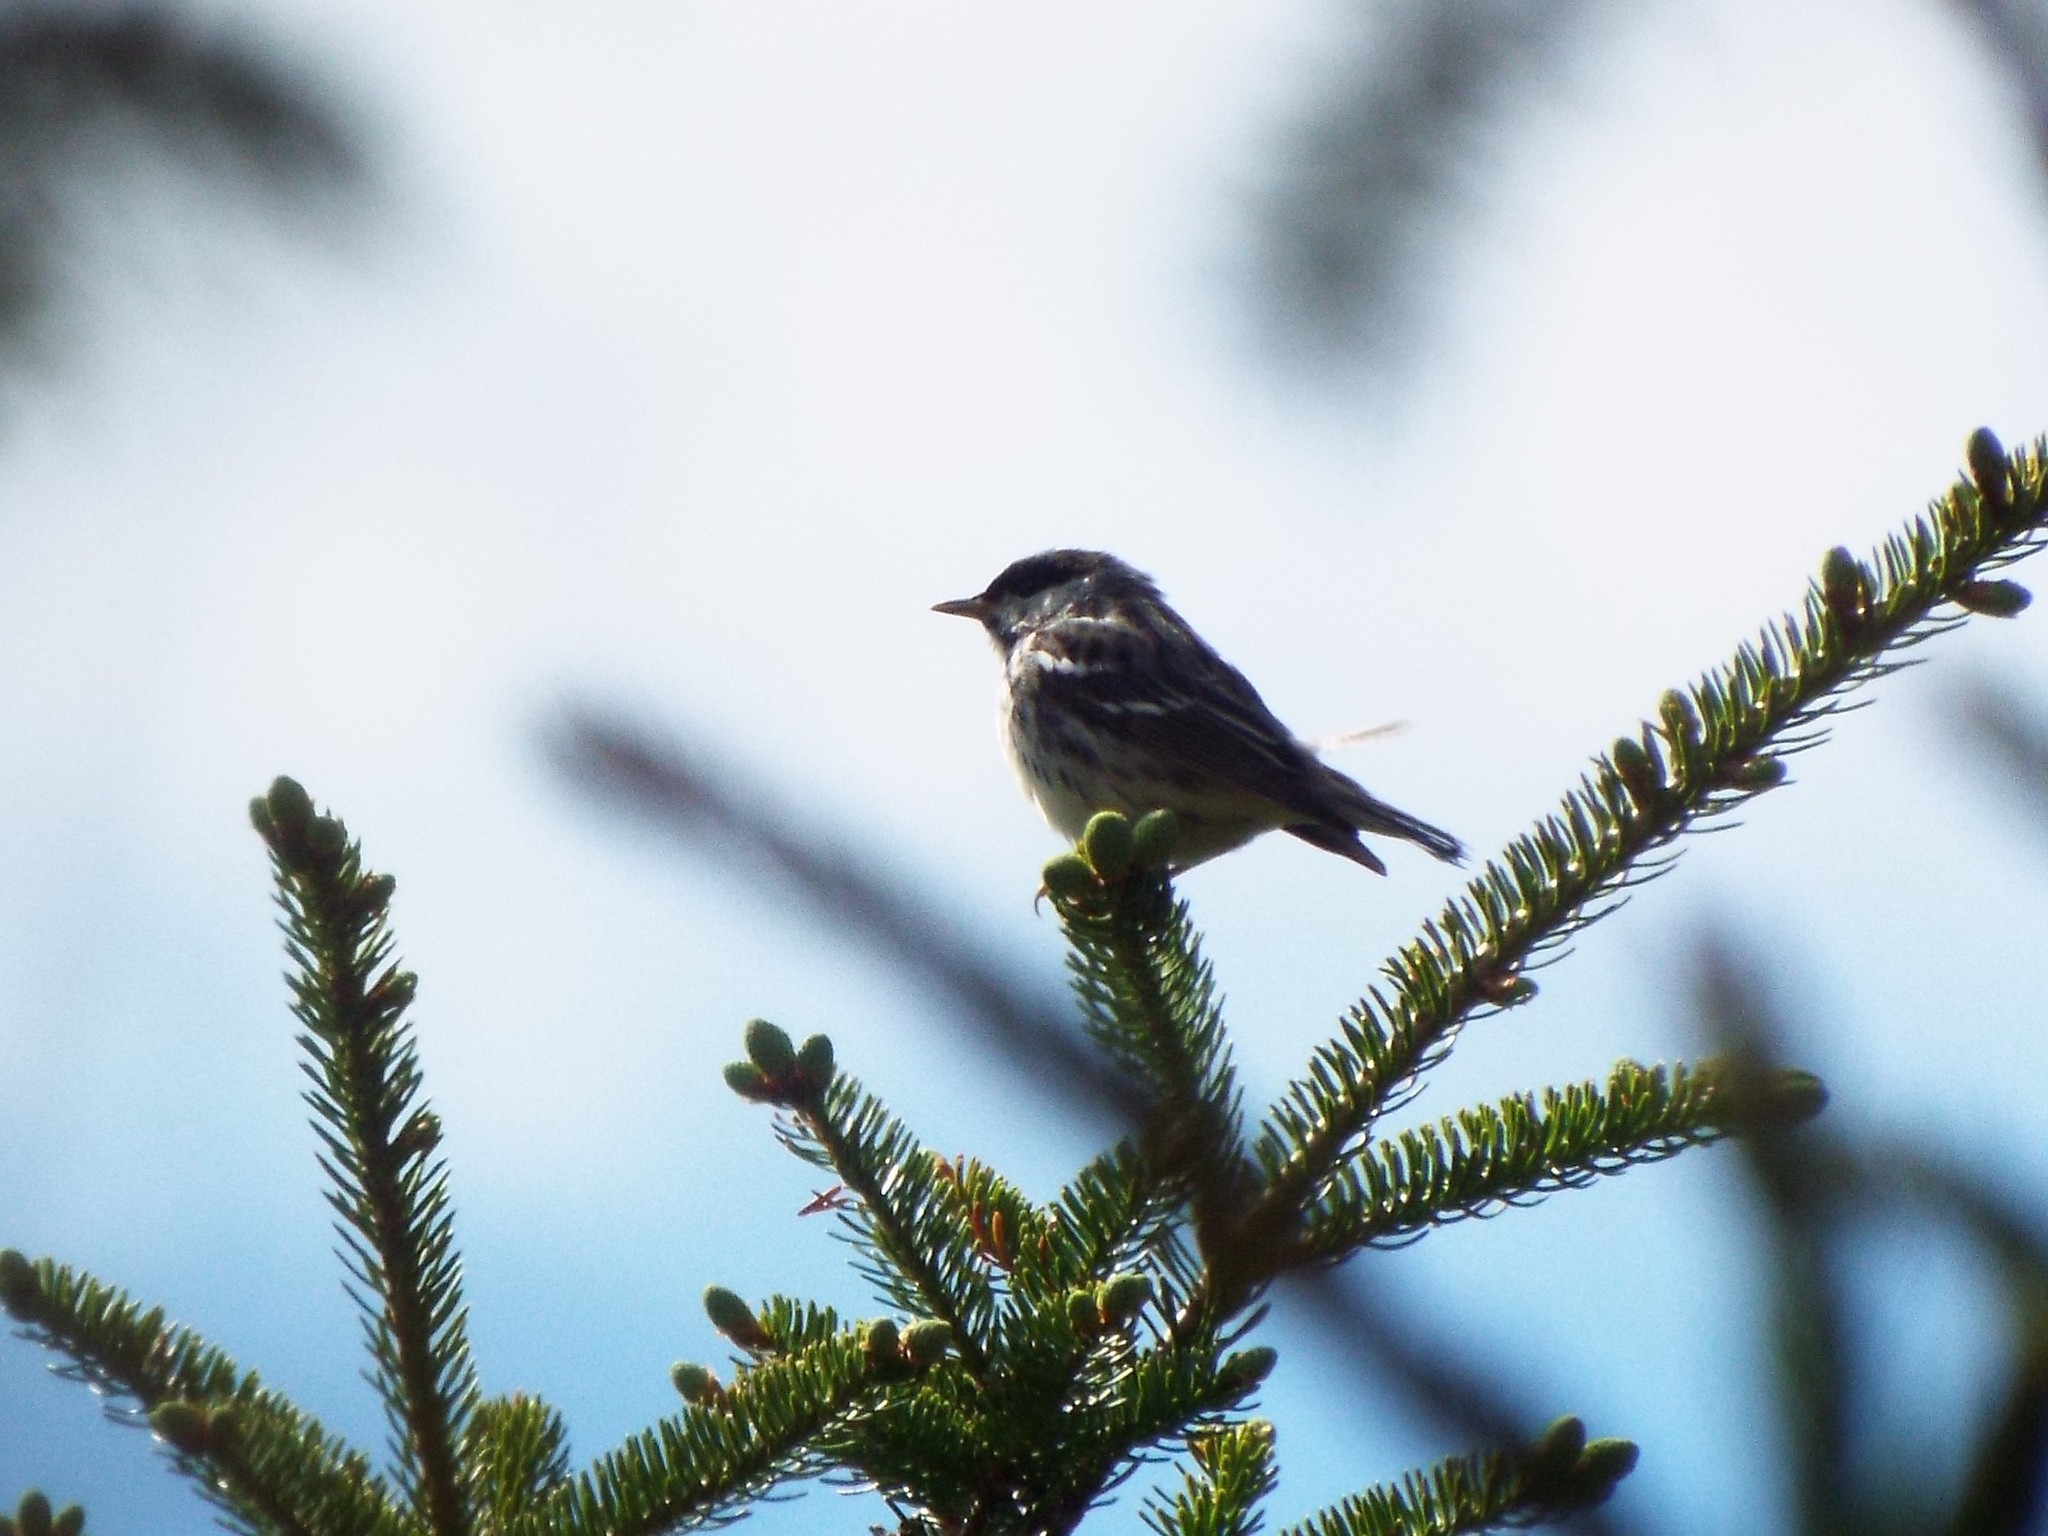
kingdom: Animalia
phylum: Chordata
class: Aves
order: Passeriformes
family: Parulidae
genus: Setophaga
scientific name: Setophaga striata
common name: Blackpoll warbler
